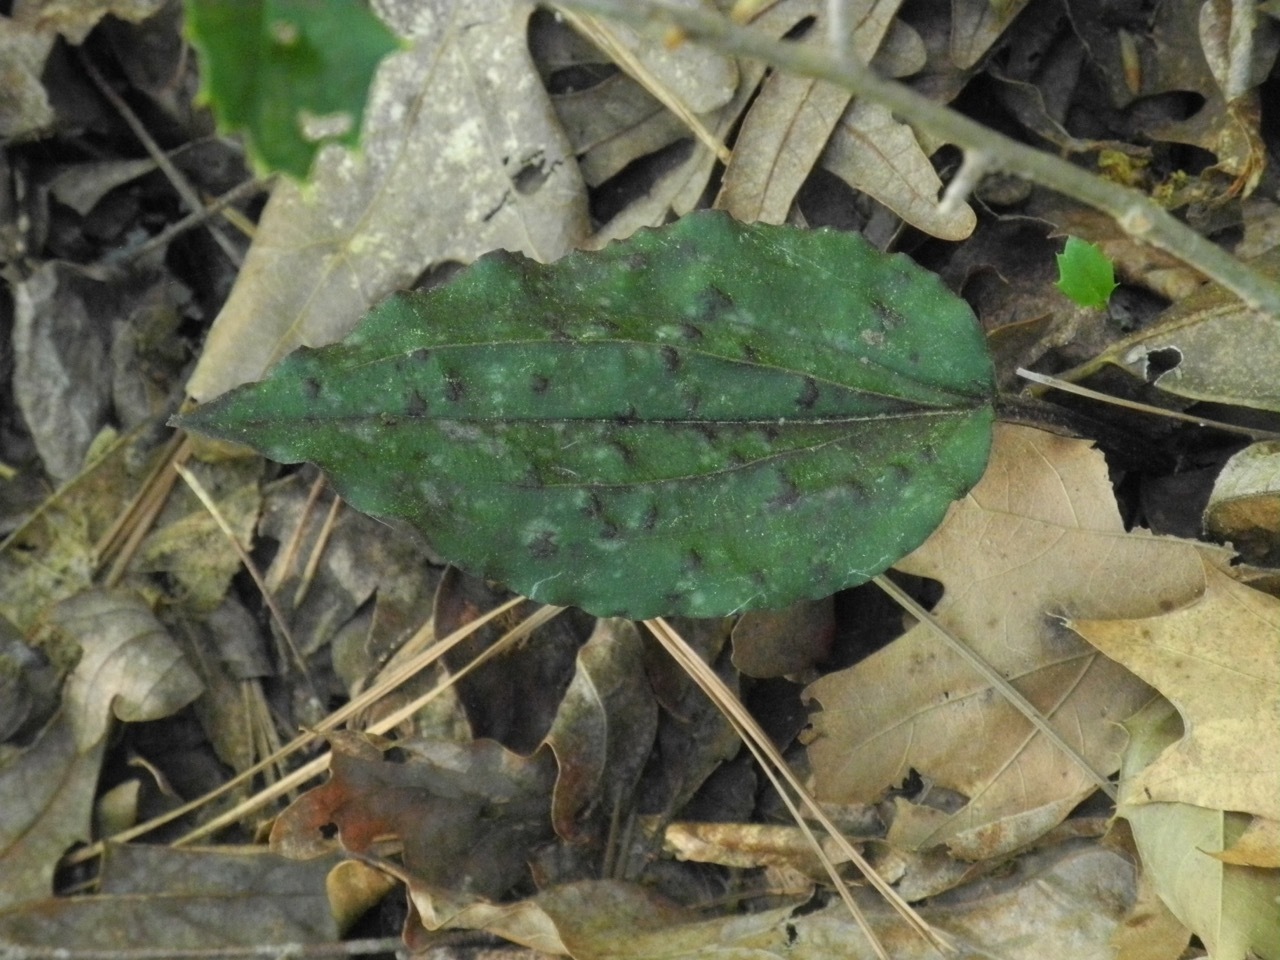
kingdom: Plantae
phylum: Tracheophyta
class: Liliopsida
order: Asparagales
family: Orchidaceae
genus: Tipularia
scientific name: Tipularia discolor
